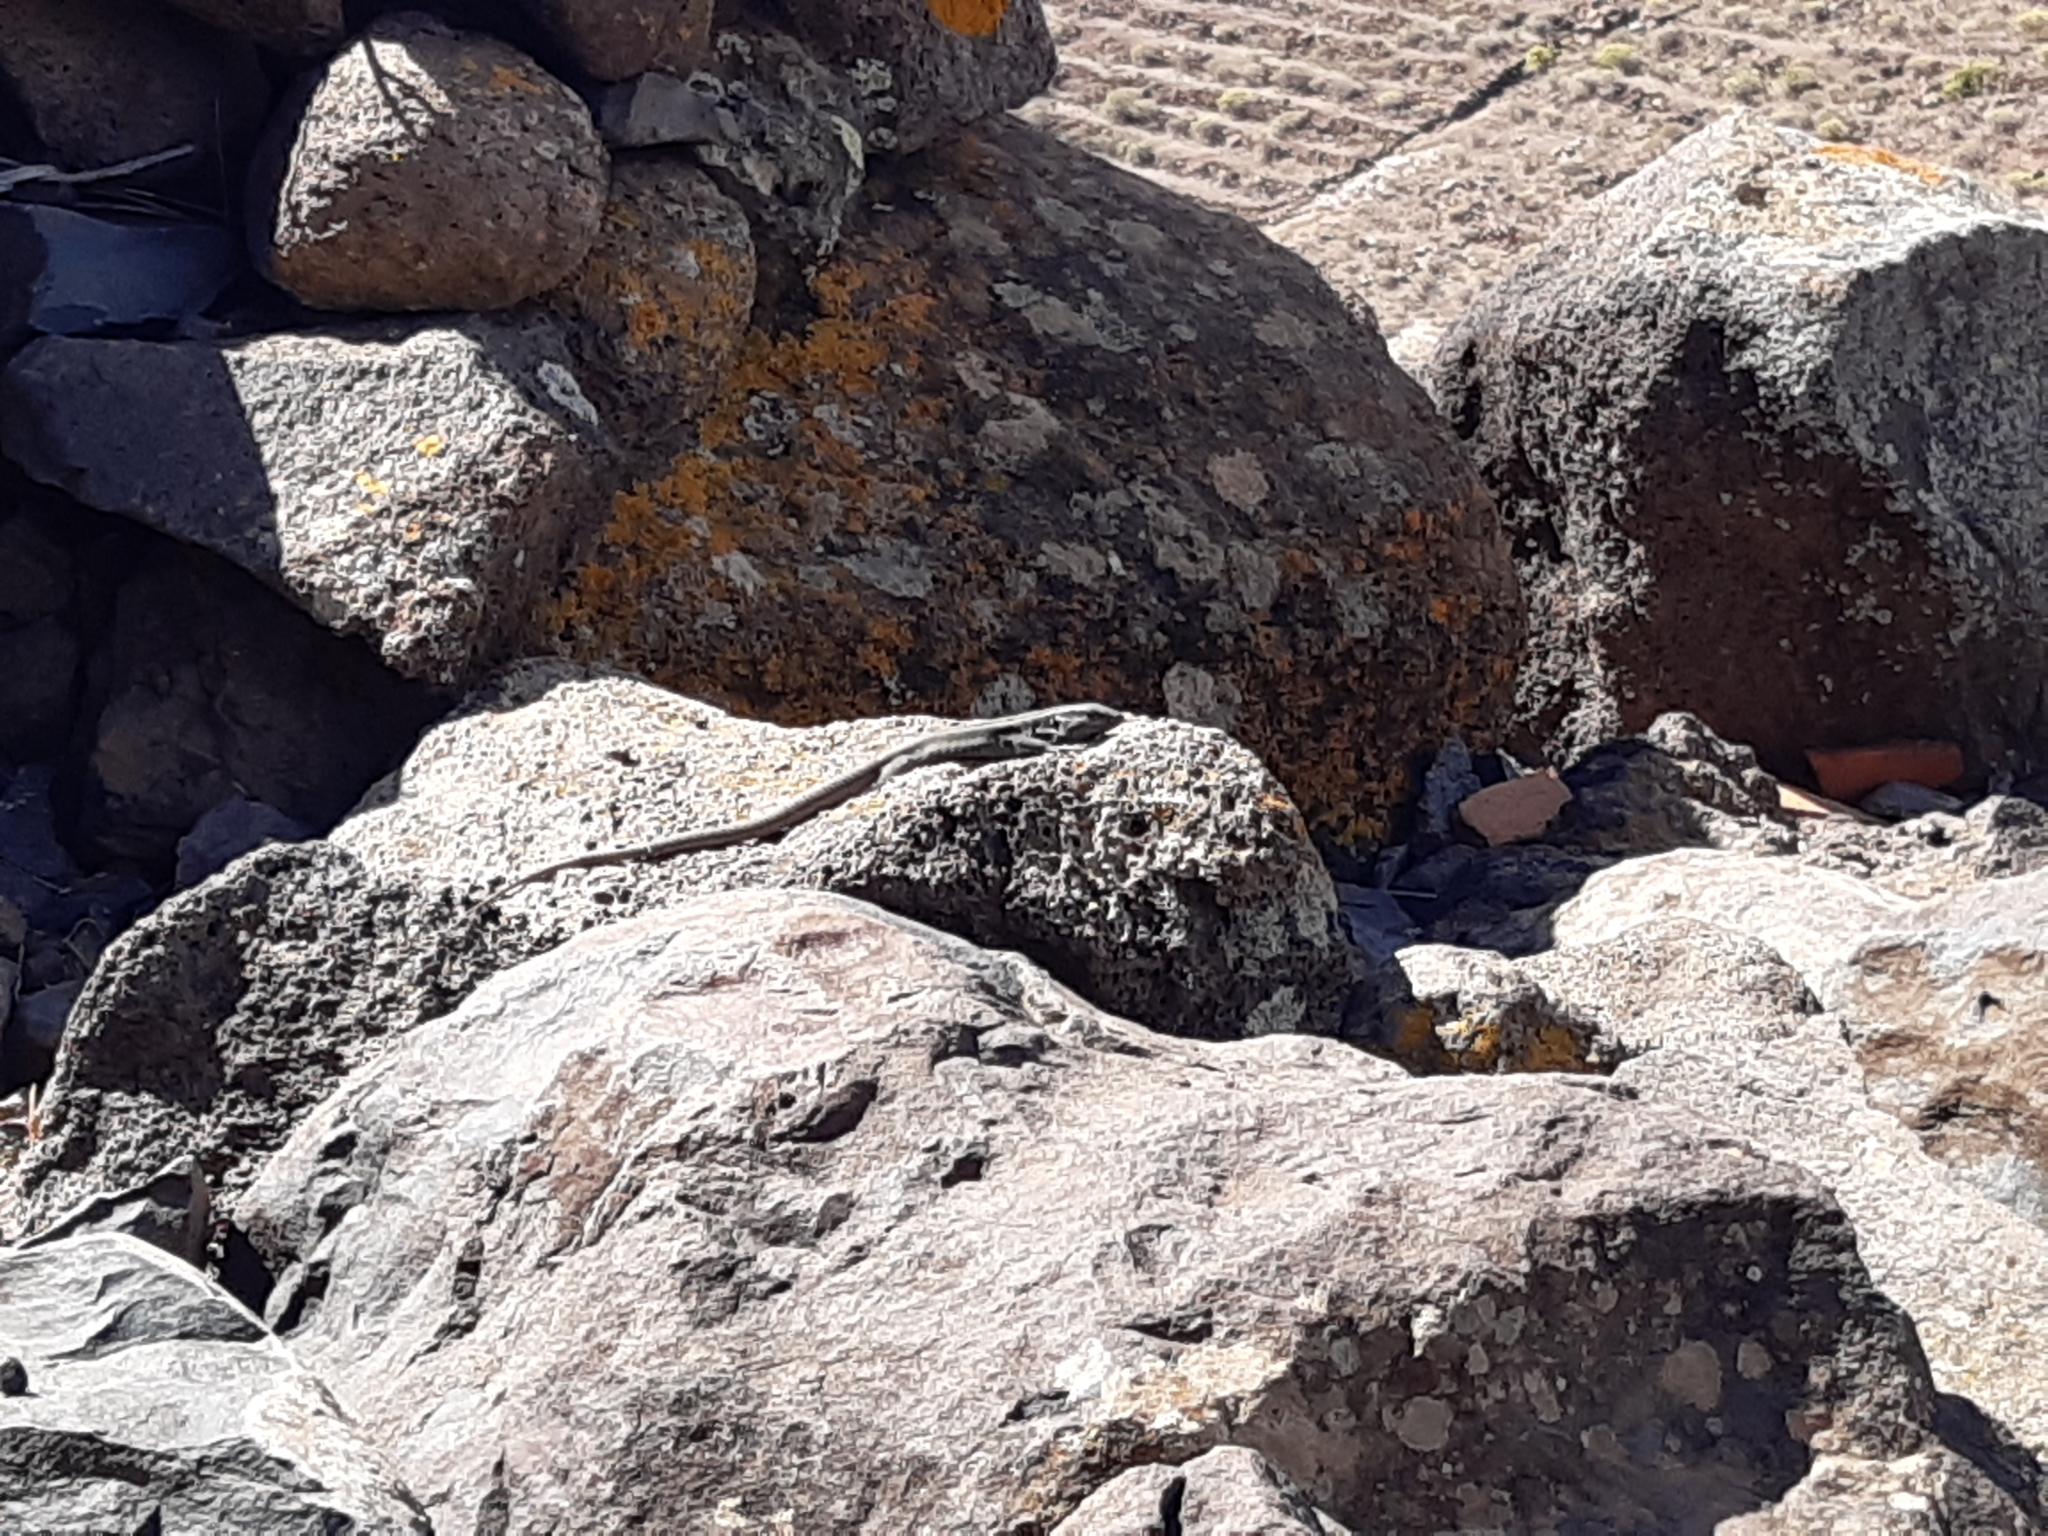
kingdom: Animalia
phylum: Chordata
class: Squamata
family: Lacertidae
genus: Gallotia
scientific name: Gallotia caesaris
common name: Boettger's lizard
